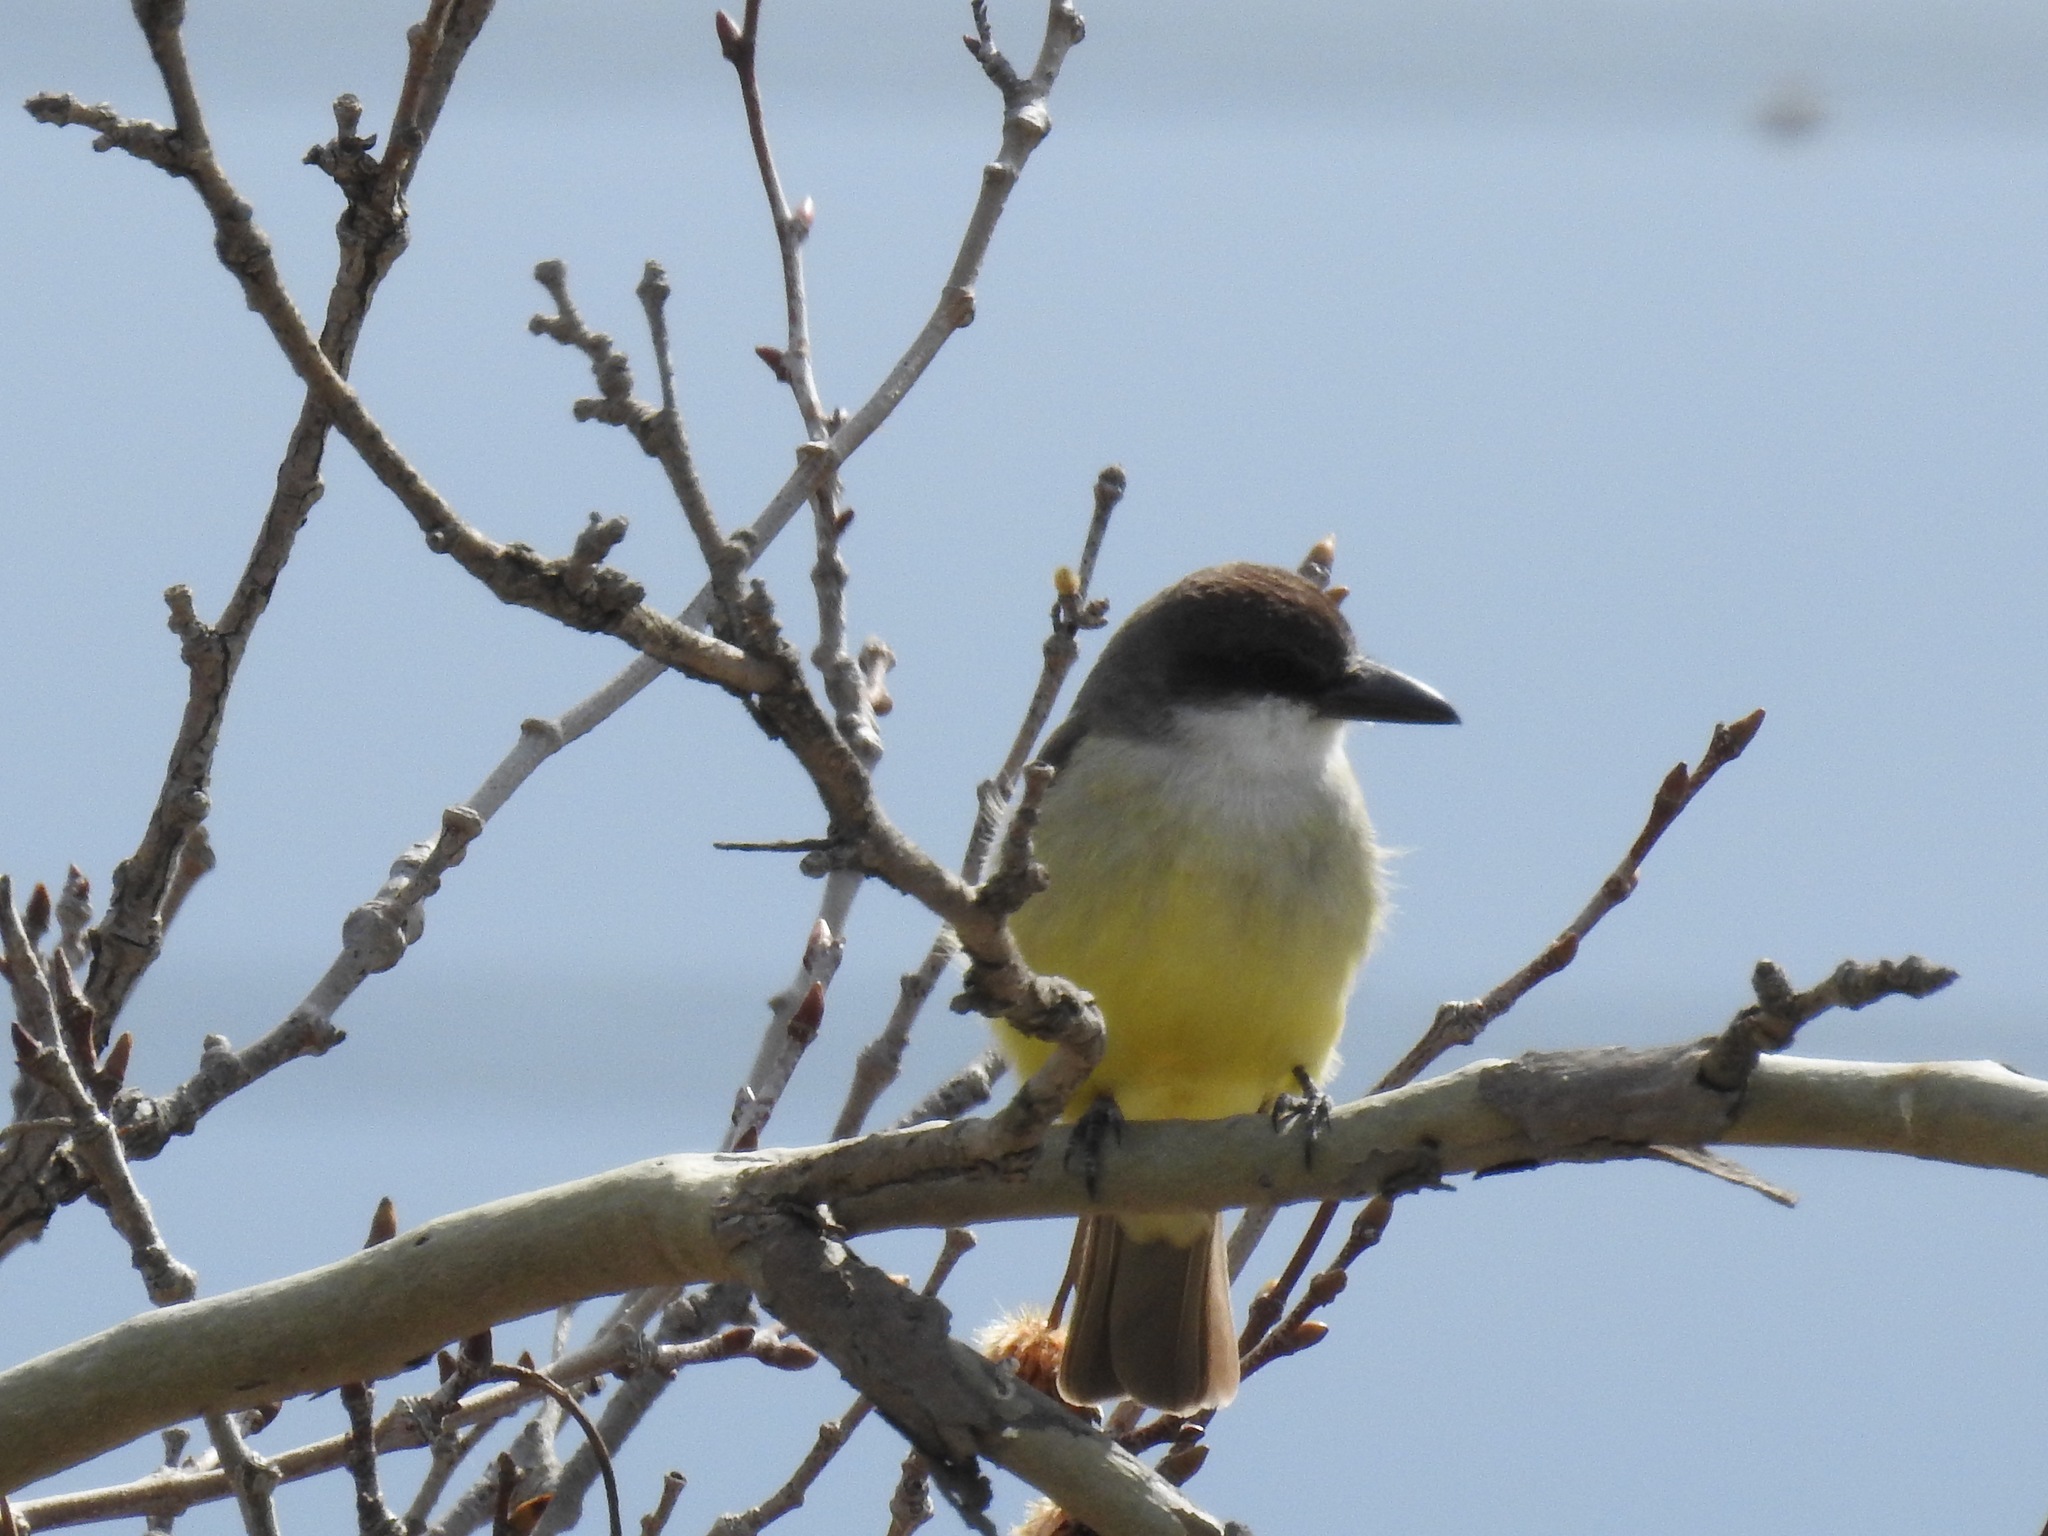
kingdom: Animalia
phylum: Chordata
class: Aves
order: Passeriformes
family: Tyrannidae
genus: Tyrannus
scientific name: Tyrannus crassirostris
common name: Thick-billed kingbird
